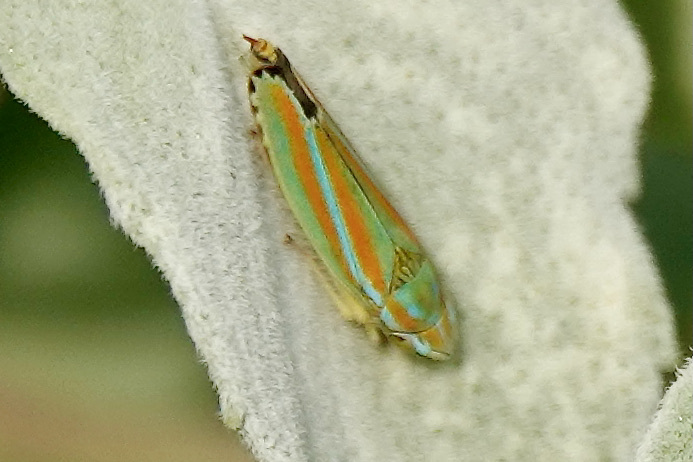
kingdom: Animalia
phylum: Arthropoda
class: Insecta
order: Hemiptera
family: Cicadellidae
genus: Graphocephala
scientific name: Graphocephala versuta
